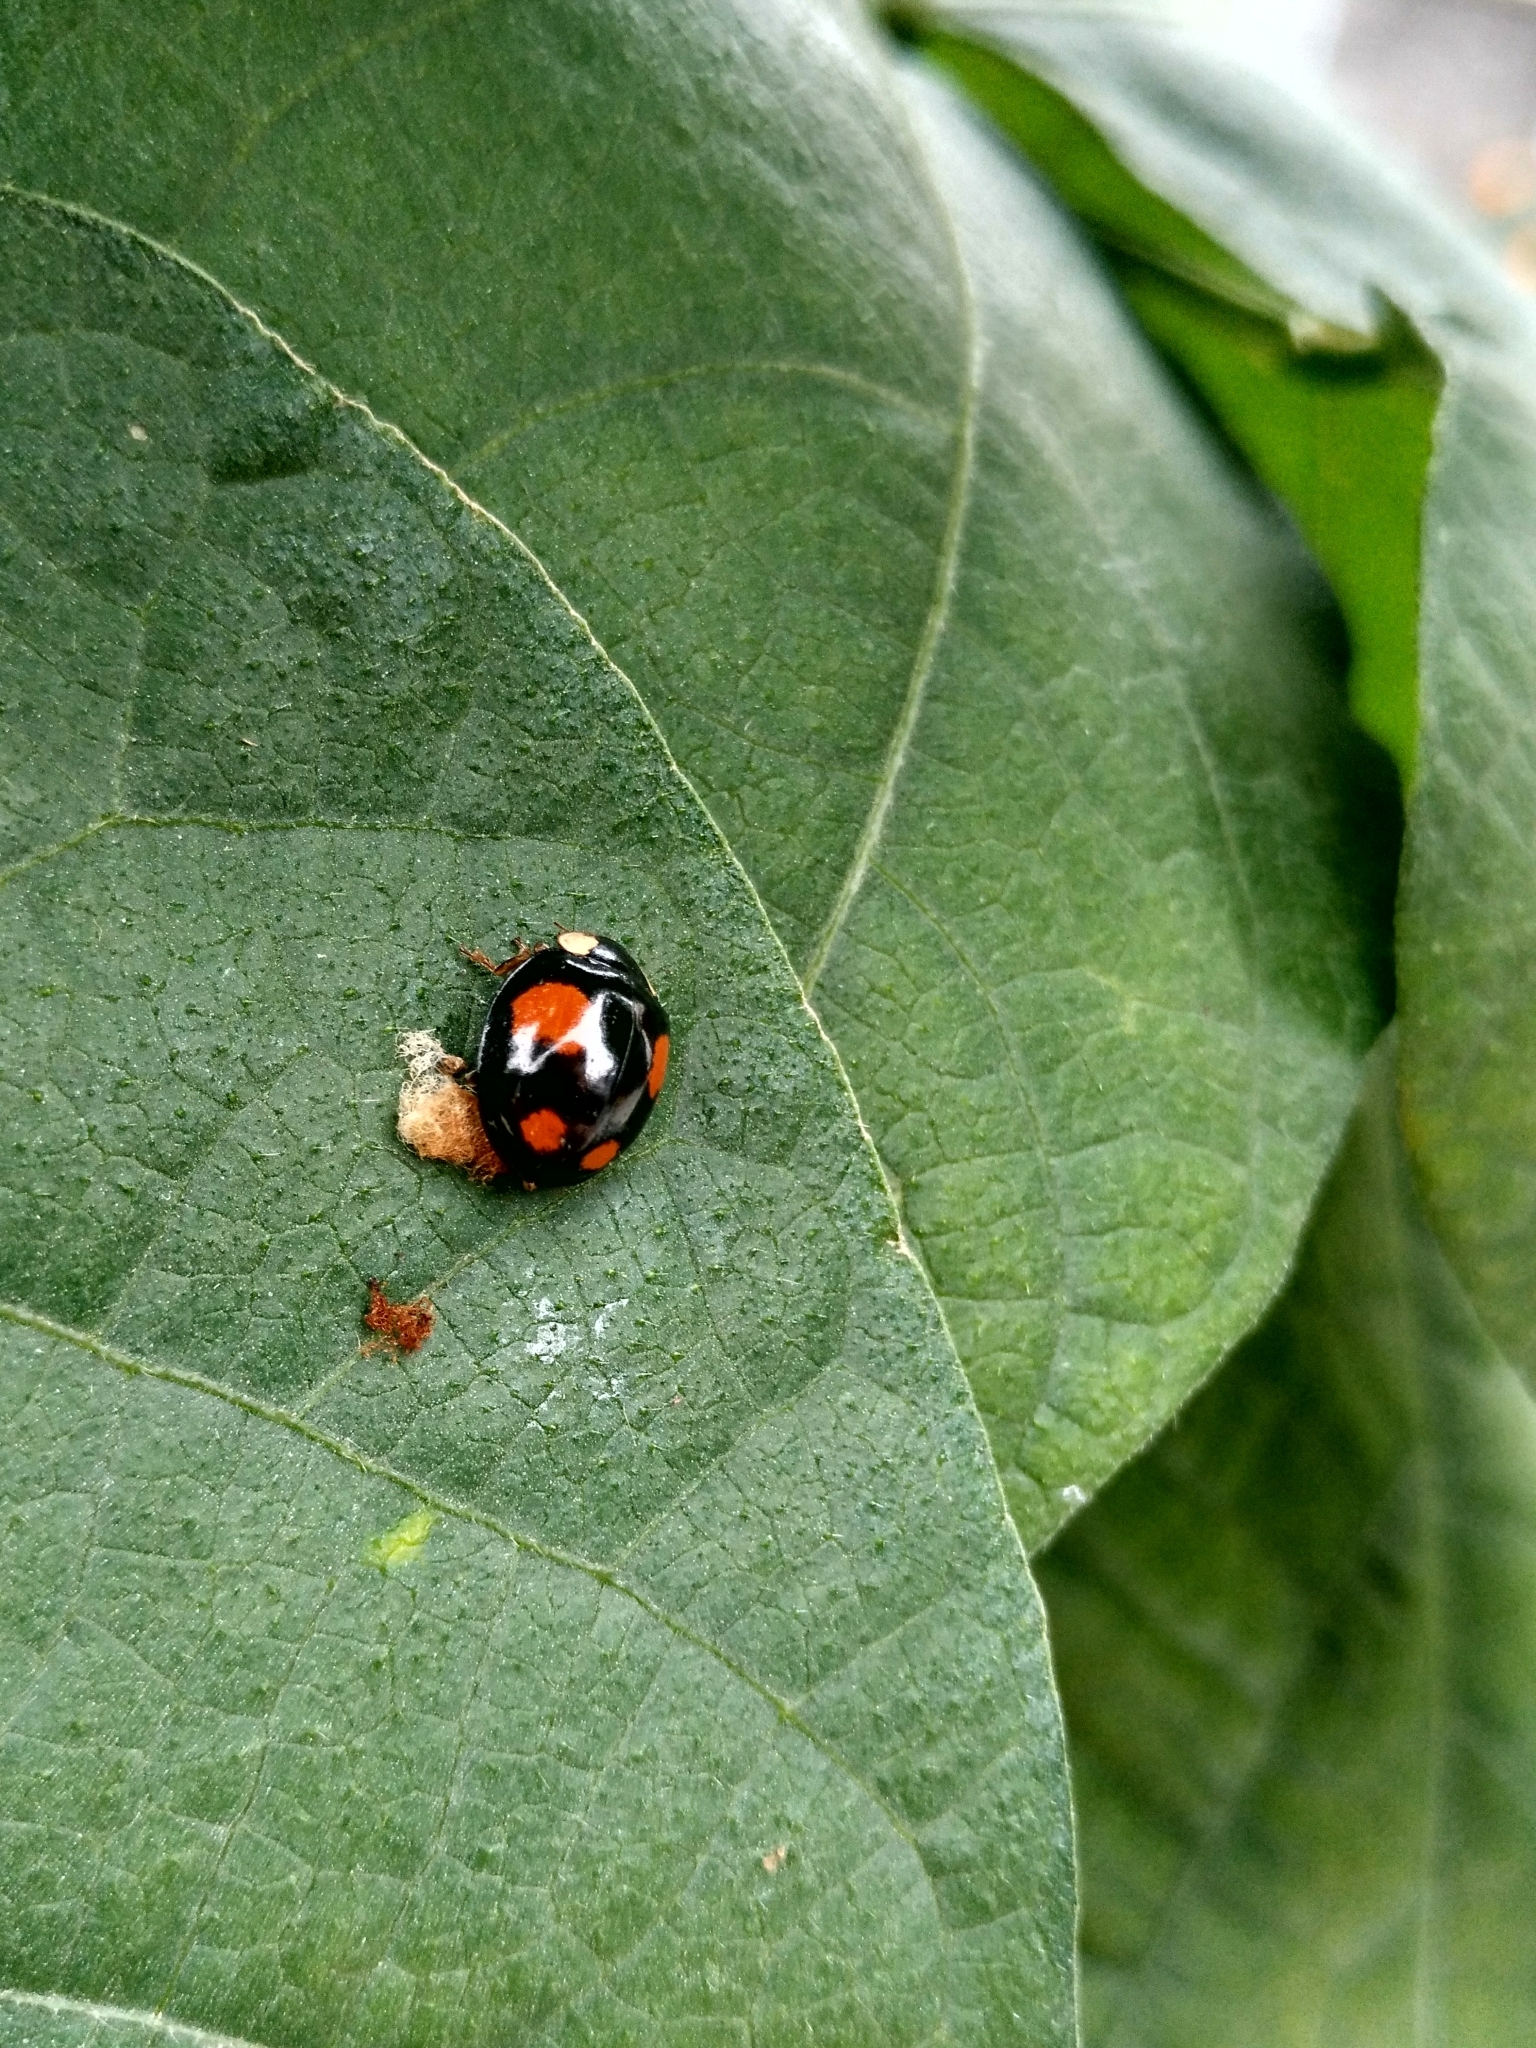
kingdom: Animalia
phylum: Arthropoda
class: Insecta
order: Coleoptera
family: Coccinellidae
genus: Harmonia
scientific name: Harmonia axyridis
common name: Harlequin ladybird
